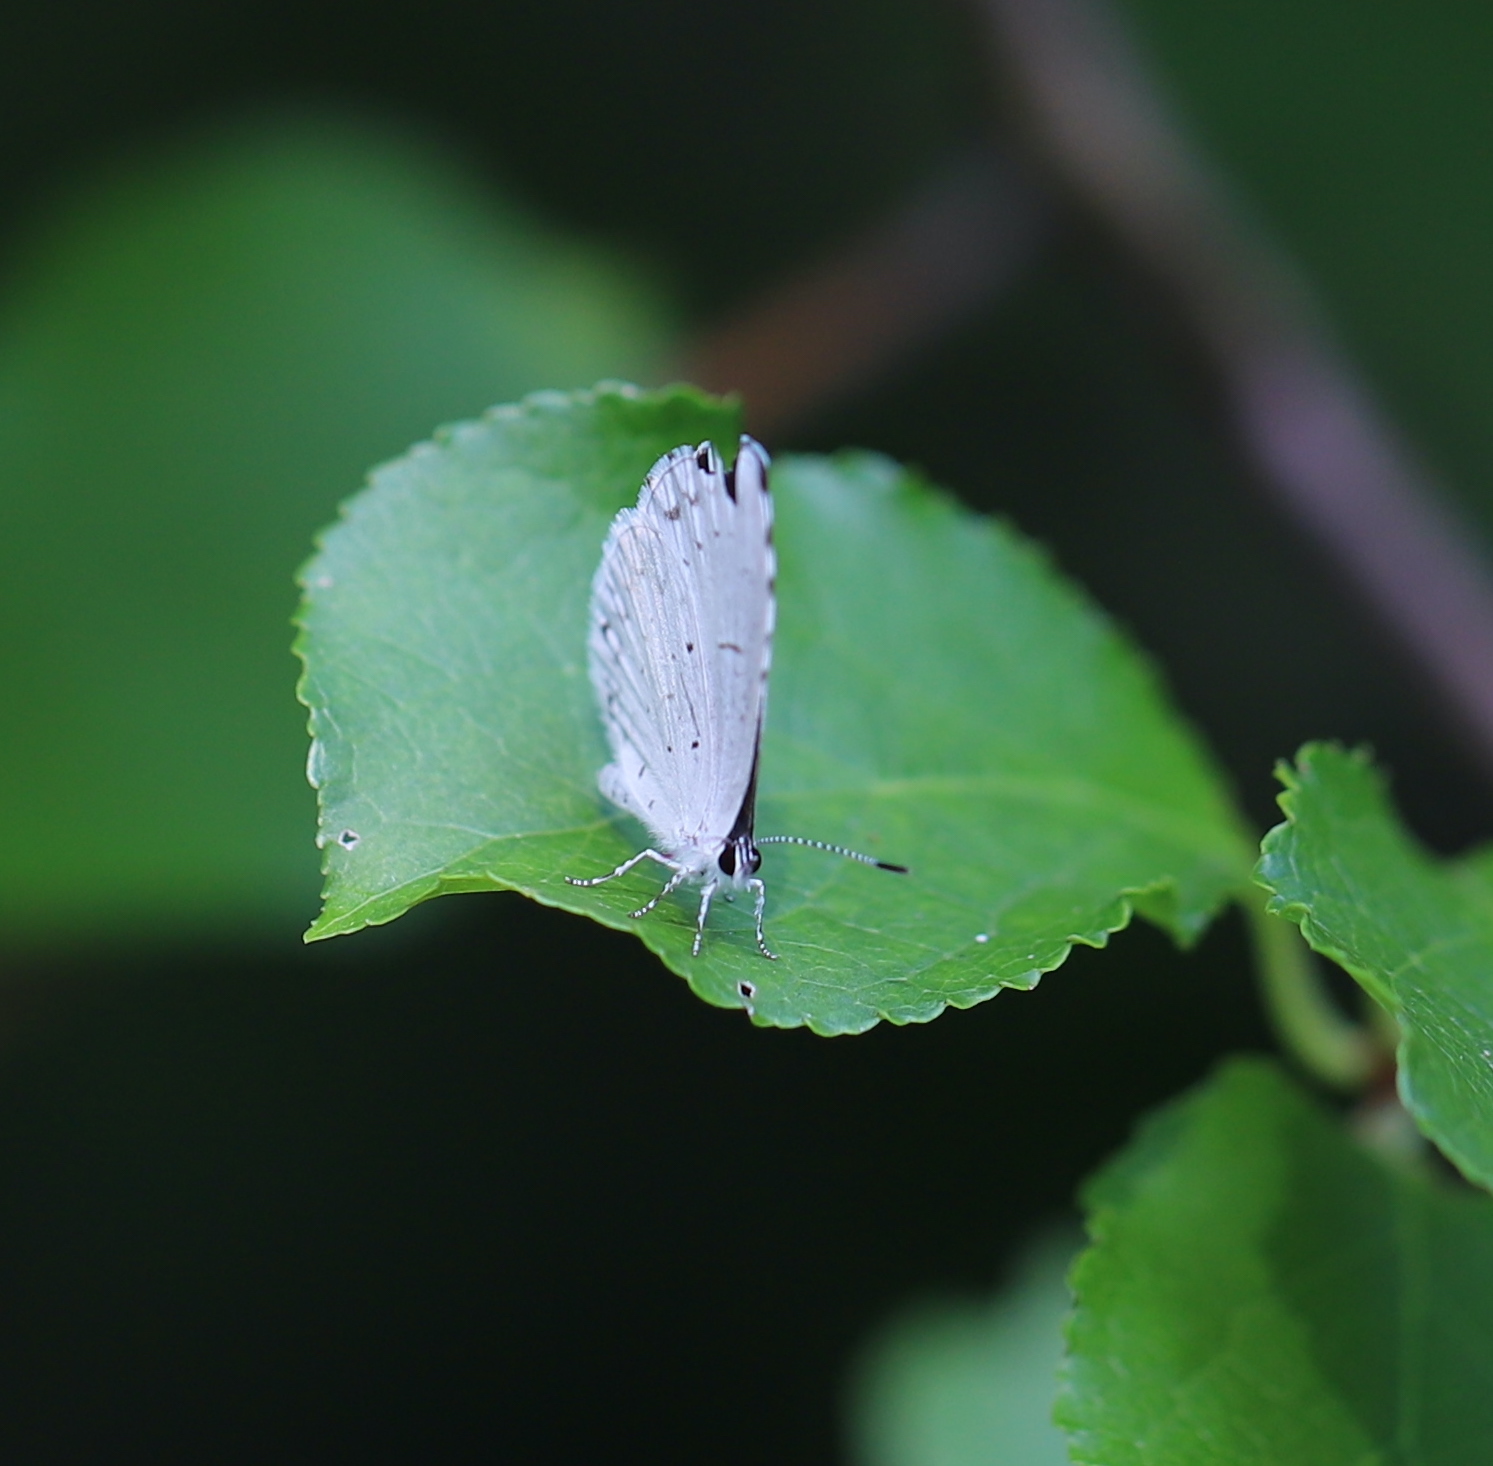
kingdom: Animalia
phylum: Arthropoda
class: Insecta
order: Lepidoptera
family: Lycaenidae
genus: Cyaniris
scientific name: Cyaniris neglecta
